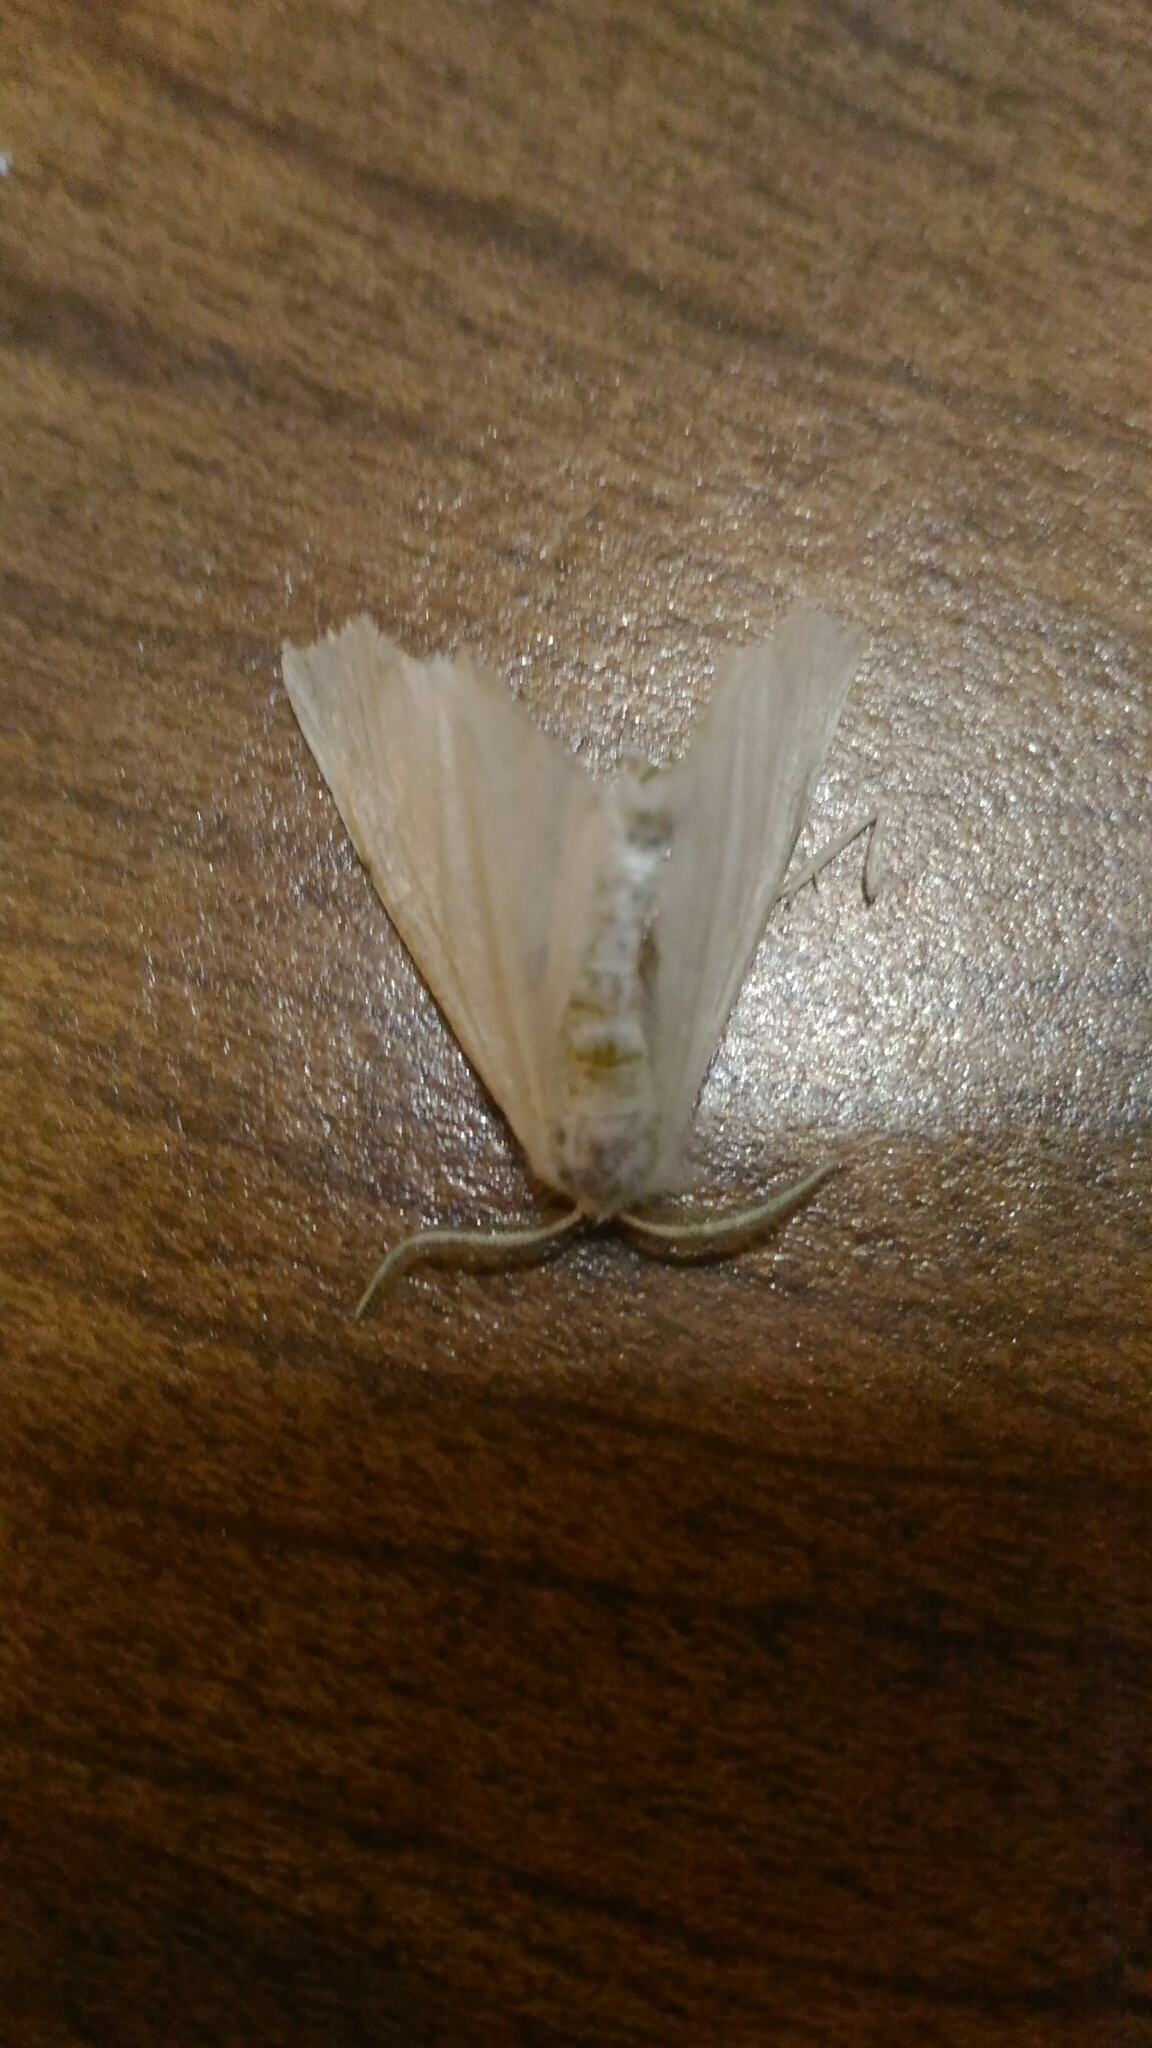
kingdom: Animalia
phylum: Arthropoda
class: Insecta
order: Lepidoptera
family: Geometridae
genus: Ennomos
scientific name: Ennomos subsignaria
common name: Elm spanworm
